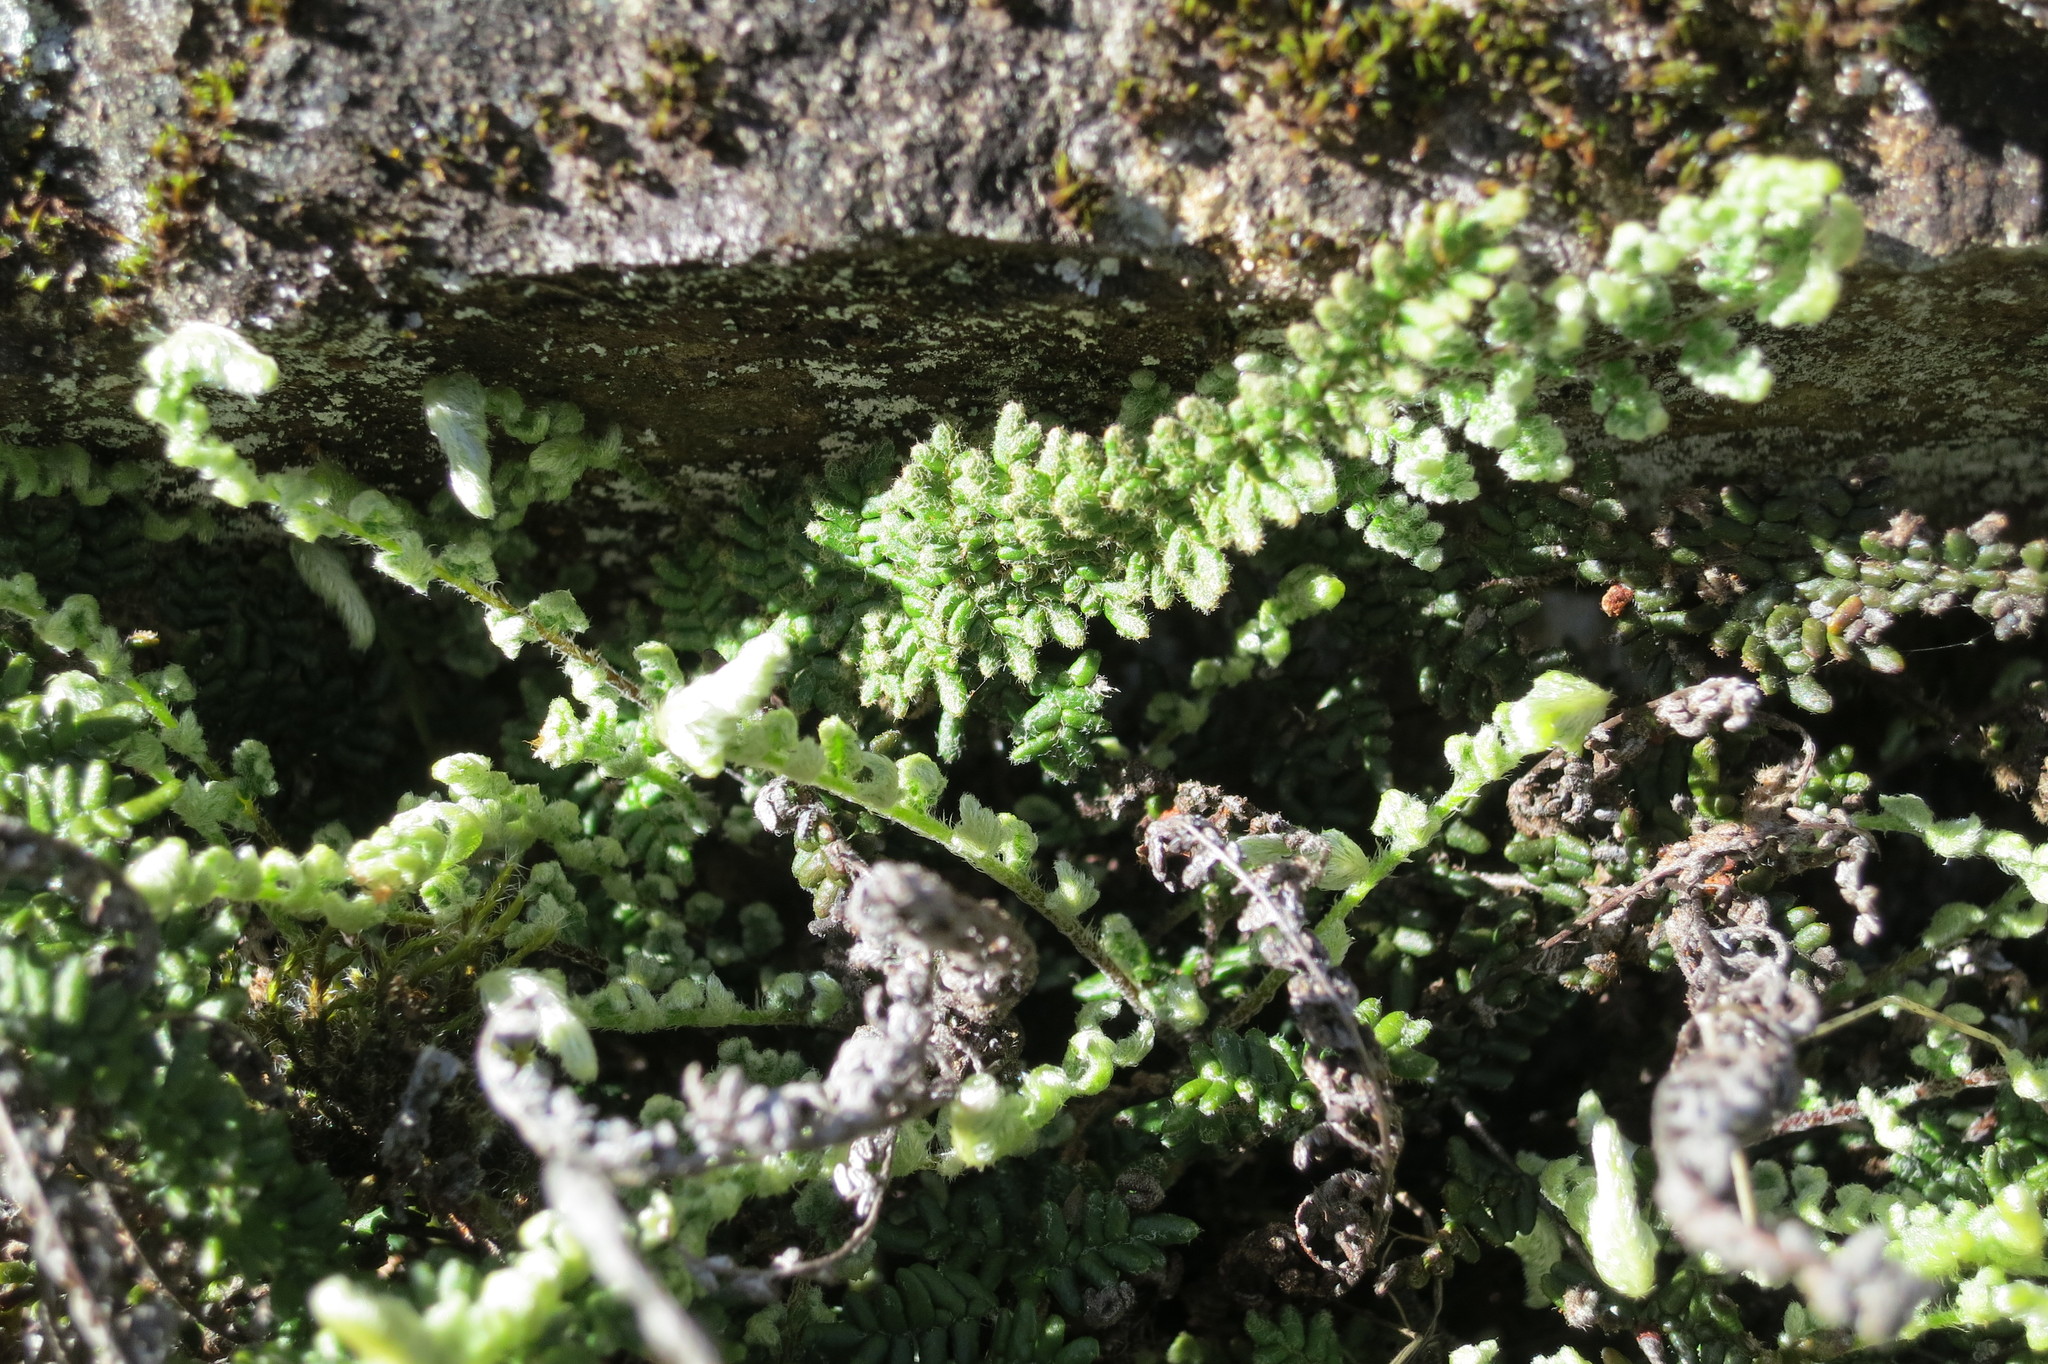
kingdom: Plantae
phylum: Tracheophyta
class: Polypodiopsida
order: Polypodiales
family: Pteridaceae
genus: Myriopteris
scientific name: Myriopteris gracillima
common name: Lace fern
